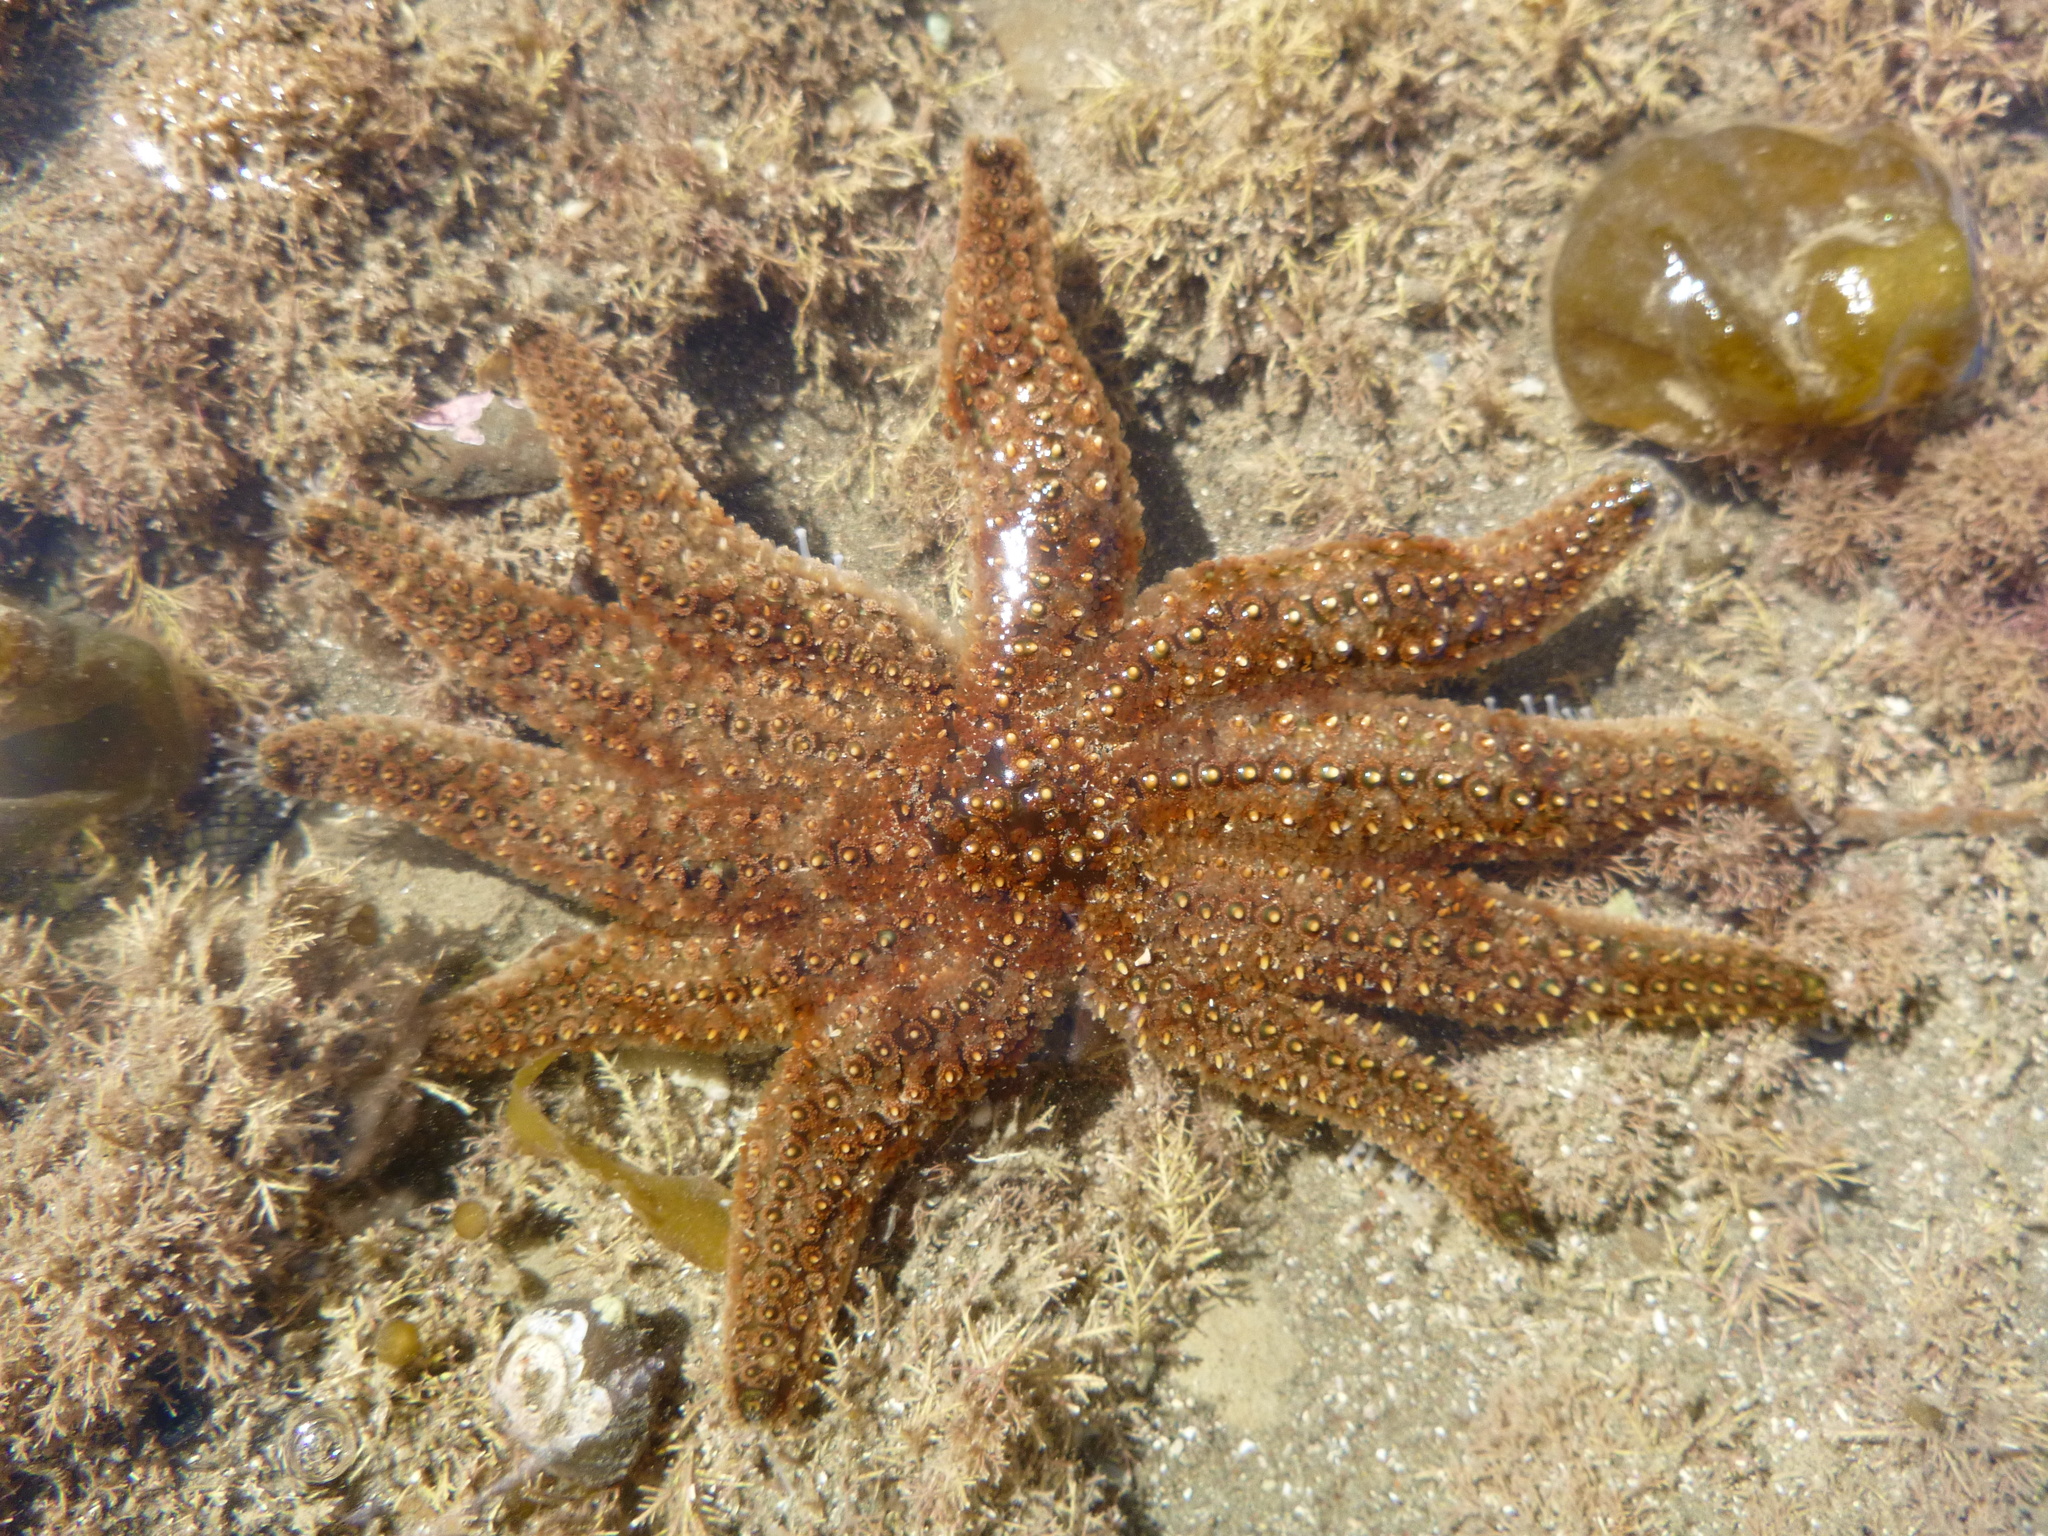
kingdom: Animalia
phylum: Echinodermata
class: Asteroidea
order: Forcipulatida
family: Asteriidae
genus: Coscinasterias
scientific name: Coscinasterias muricata
